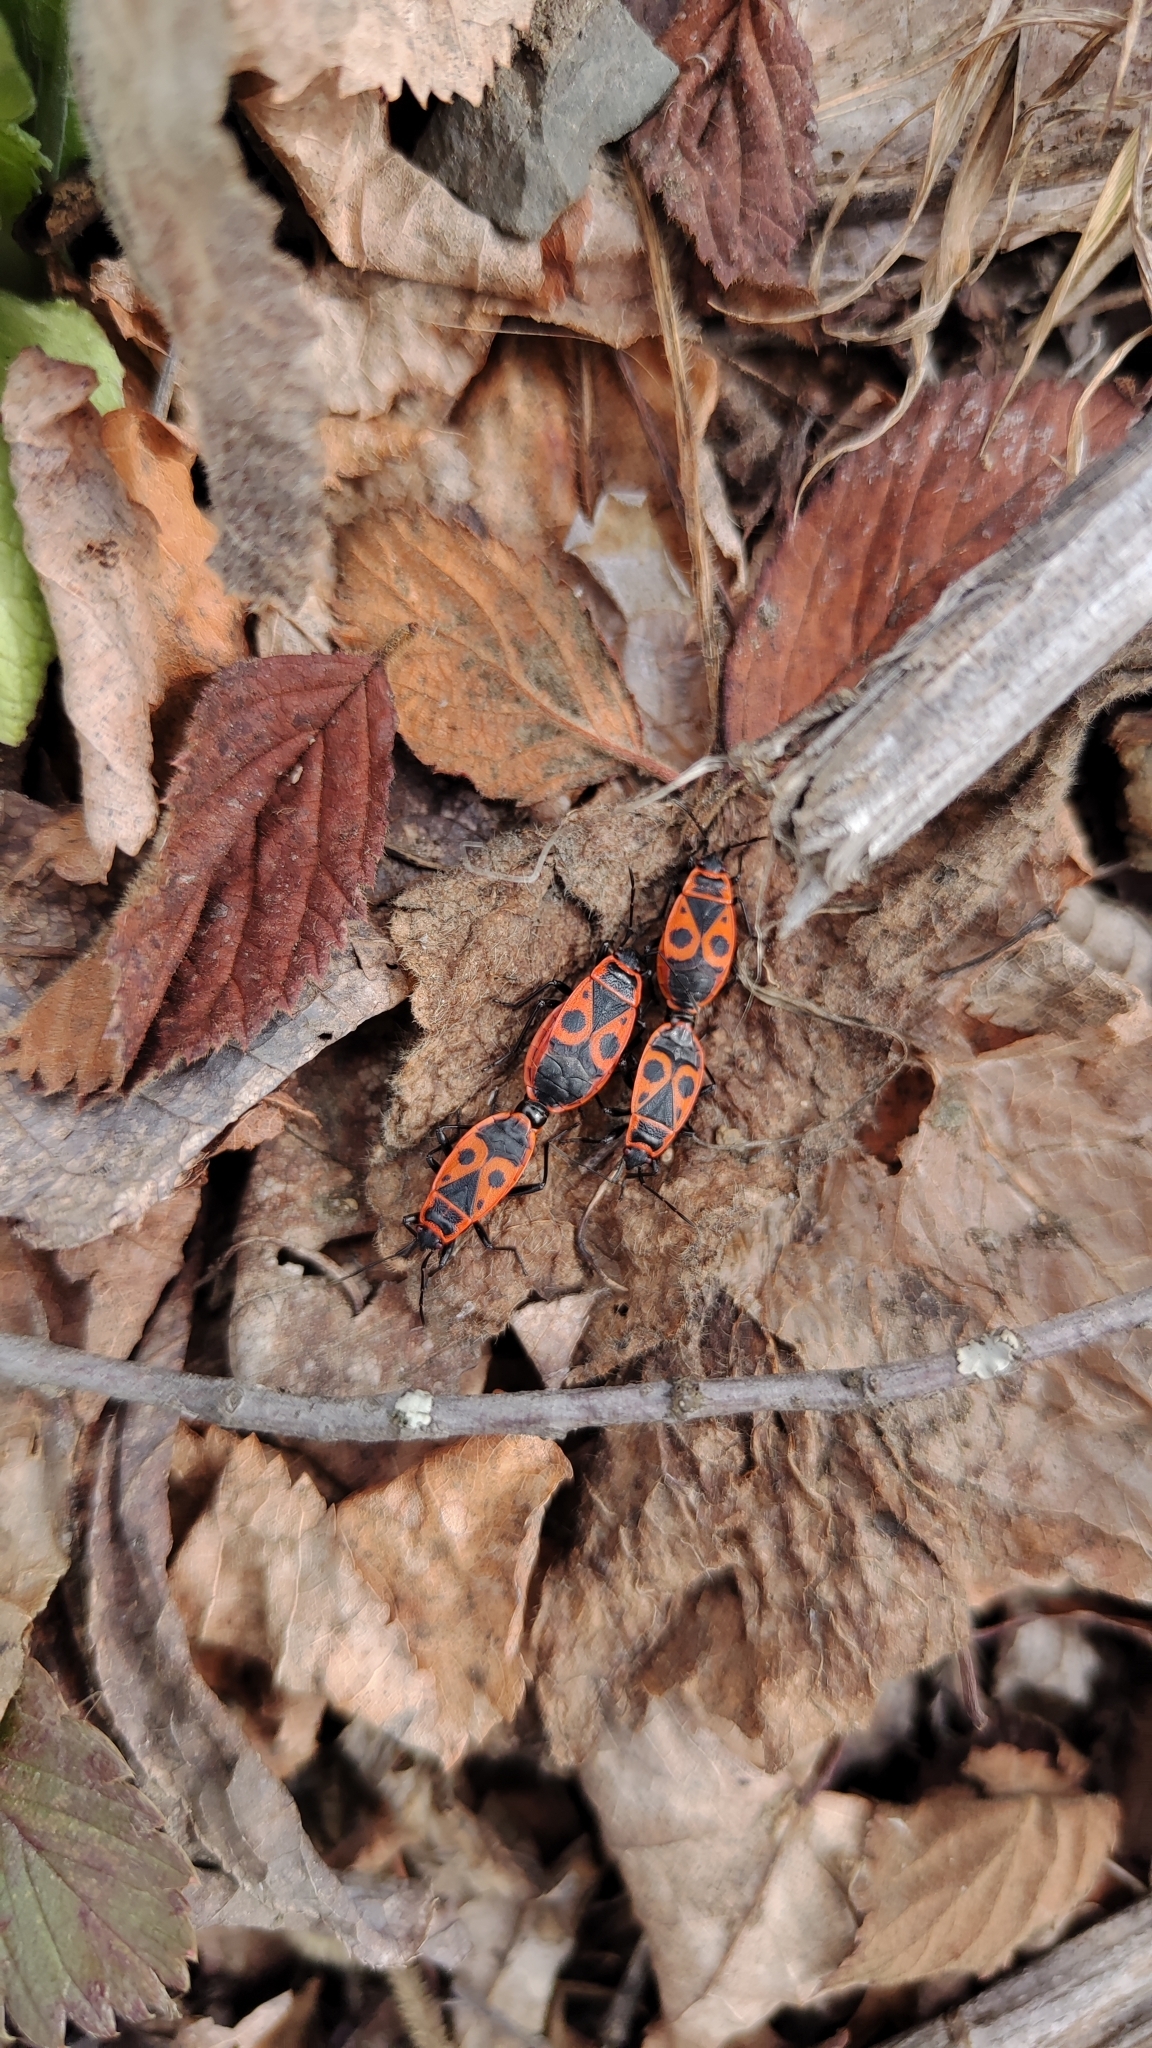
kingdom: Animalia
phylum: Arthropoda
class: Insecta
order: Hemiptera
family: Pyrrhocoridae
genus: Pyrrhocoris
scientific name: Pyrrhocoris apterus
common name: Firebug
